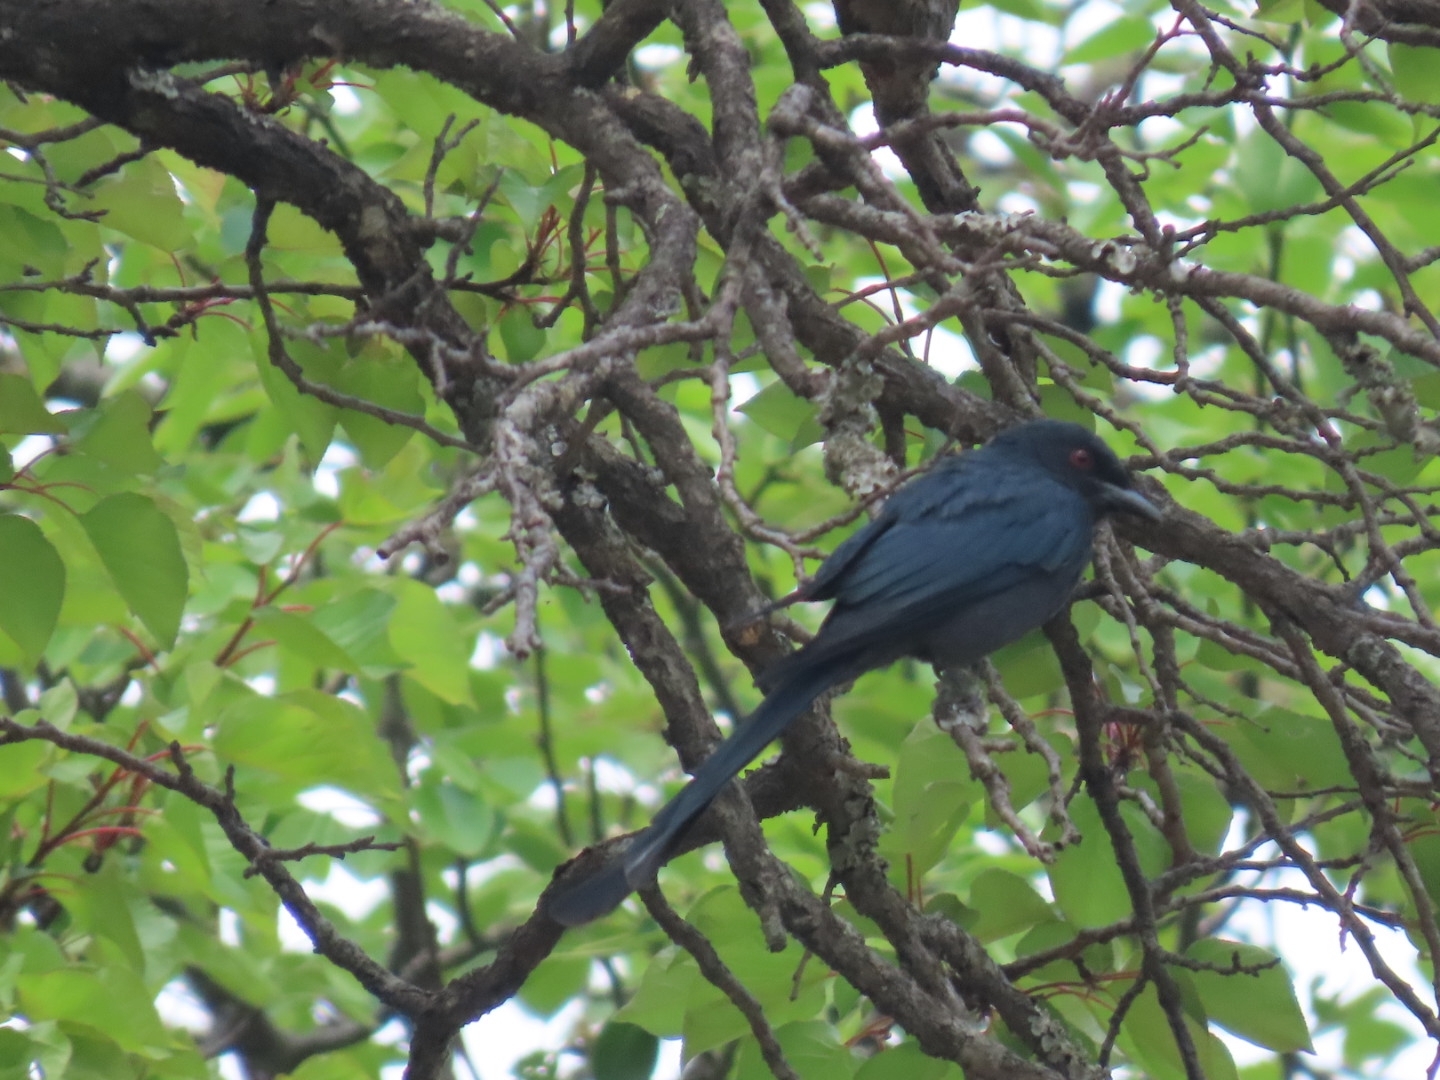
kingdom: Animalia
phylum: Chordata
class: Aves
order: Passeriformes
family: Dicruridae
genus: Dicrurus
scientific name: Dicrurus leucophaeus
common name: Ashy drongo
